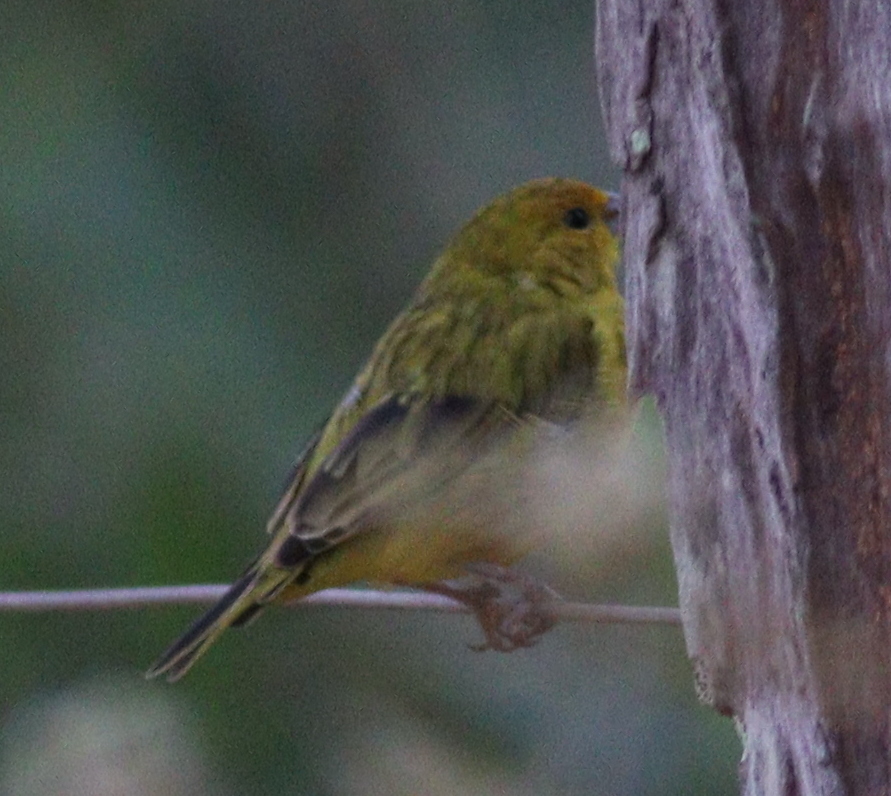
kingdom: Animalia
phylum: Chordata
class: Aves
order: Passeriformes
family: Thraupidae
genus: Sicalis
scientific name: Sicalis flaveola
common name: Saffron finch
